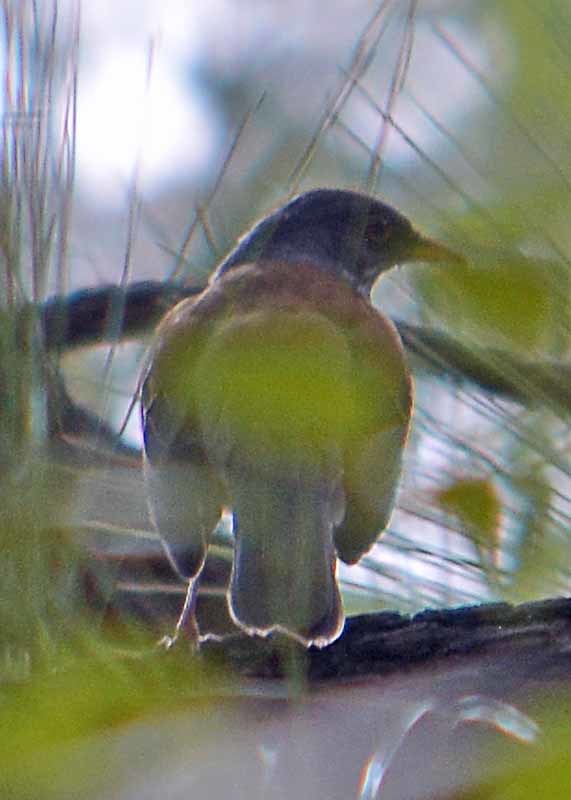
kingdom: Animalia
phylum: Chordata
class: Aves
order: Passeriformes
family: Turdidae
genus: Turdus
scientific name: Turdus rufopalliatus
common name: Rufous-backed robin
